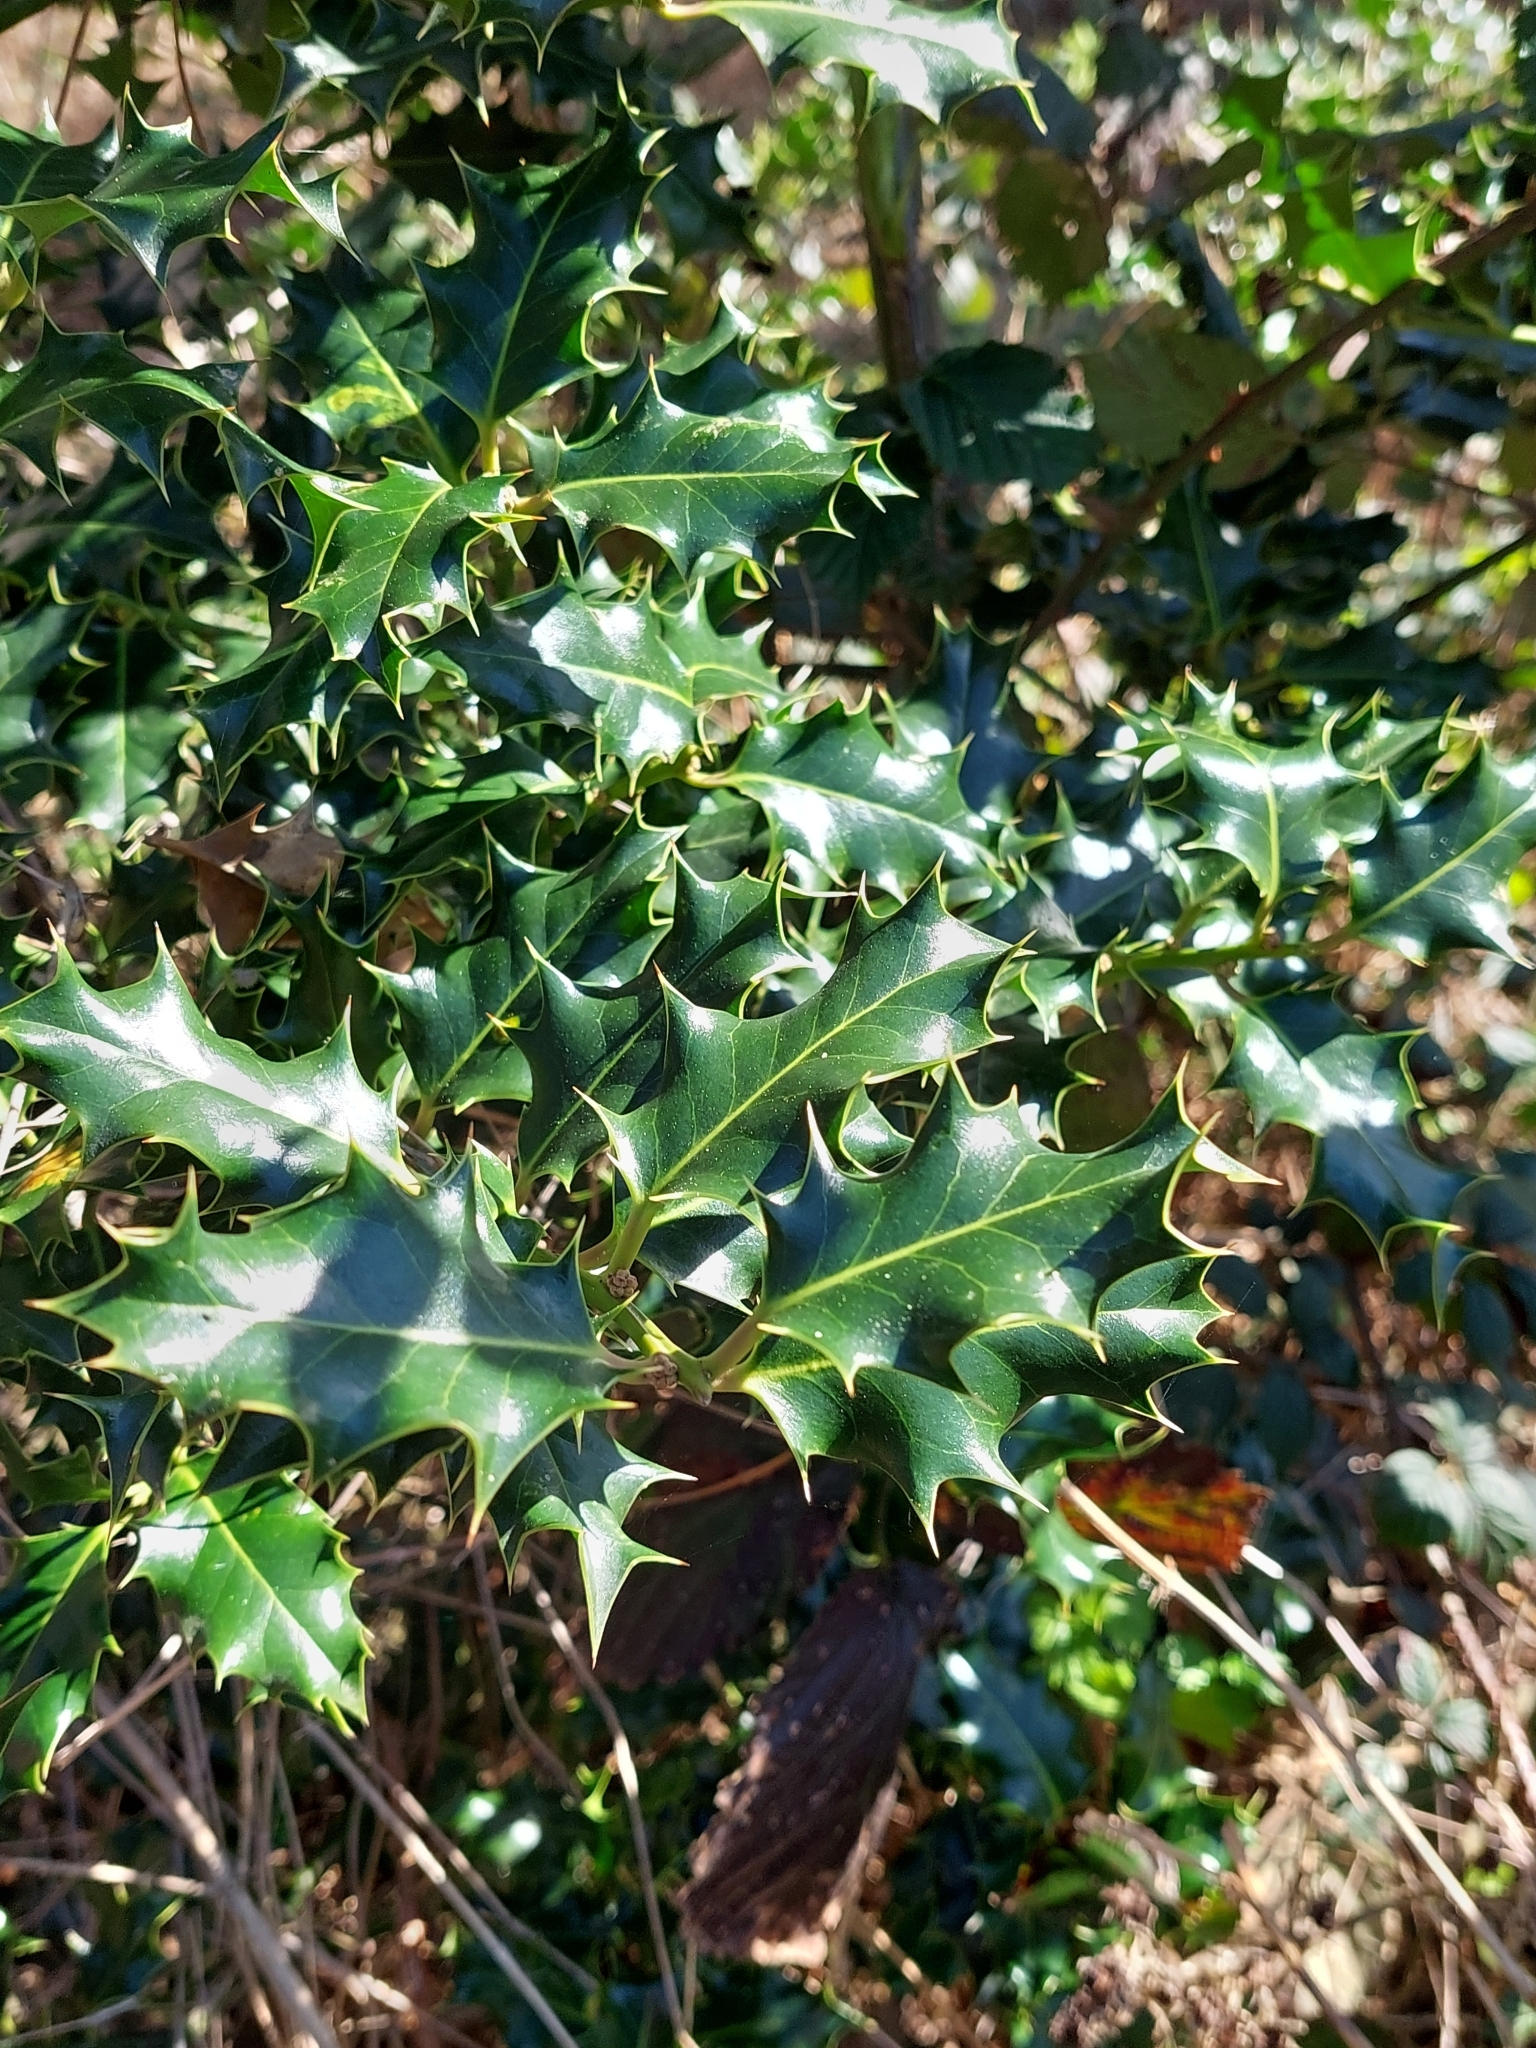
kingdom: Plantae
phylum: Tracheophyta
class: Magnoliopsida
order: Aquifoliales
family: Aquifoliaceae
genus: Ilex
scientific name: Ilex aquifolium
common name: English holly
